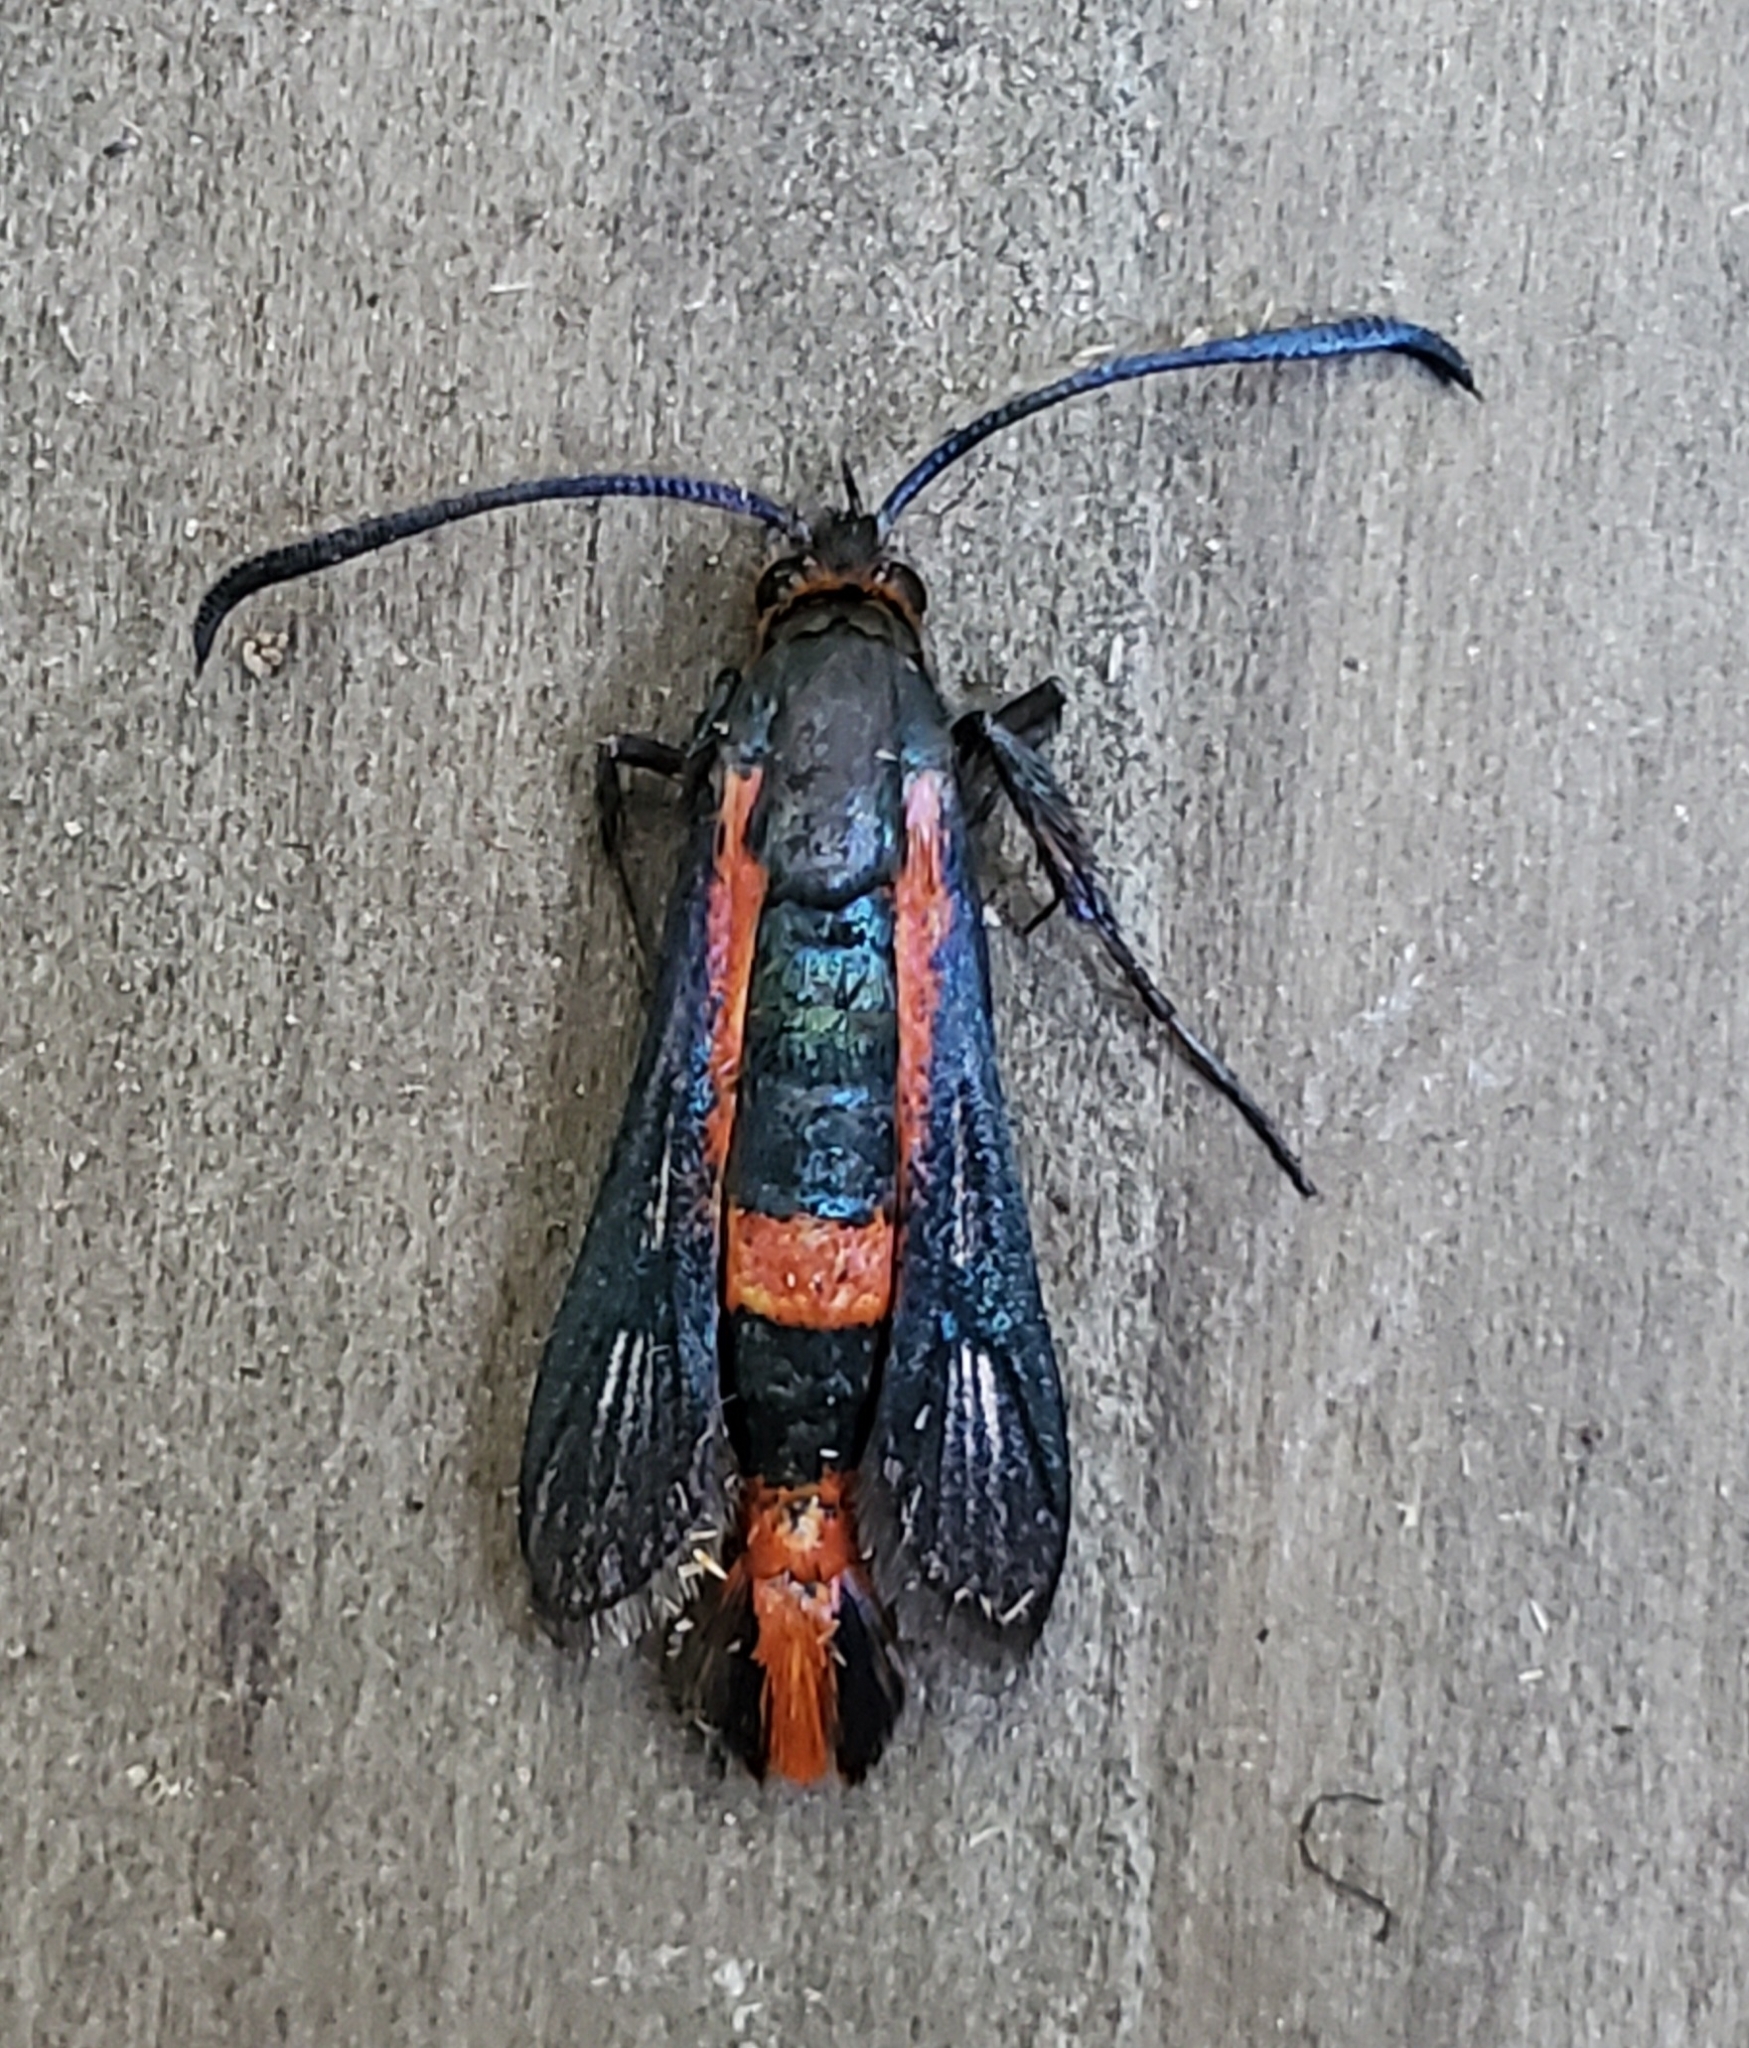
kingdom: Animalia
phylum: Arthropoda
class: Insecta
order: Lepidoptera
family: Sesiidae
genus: Synanthedon
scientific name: Synanthedon polygoni
